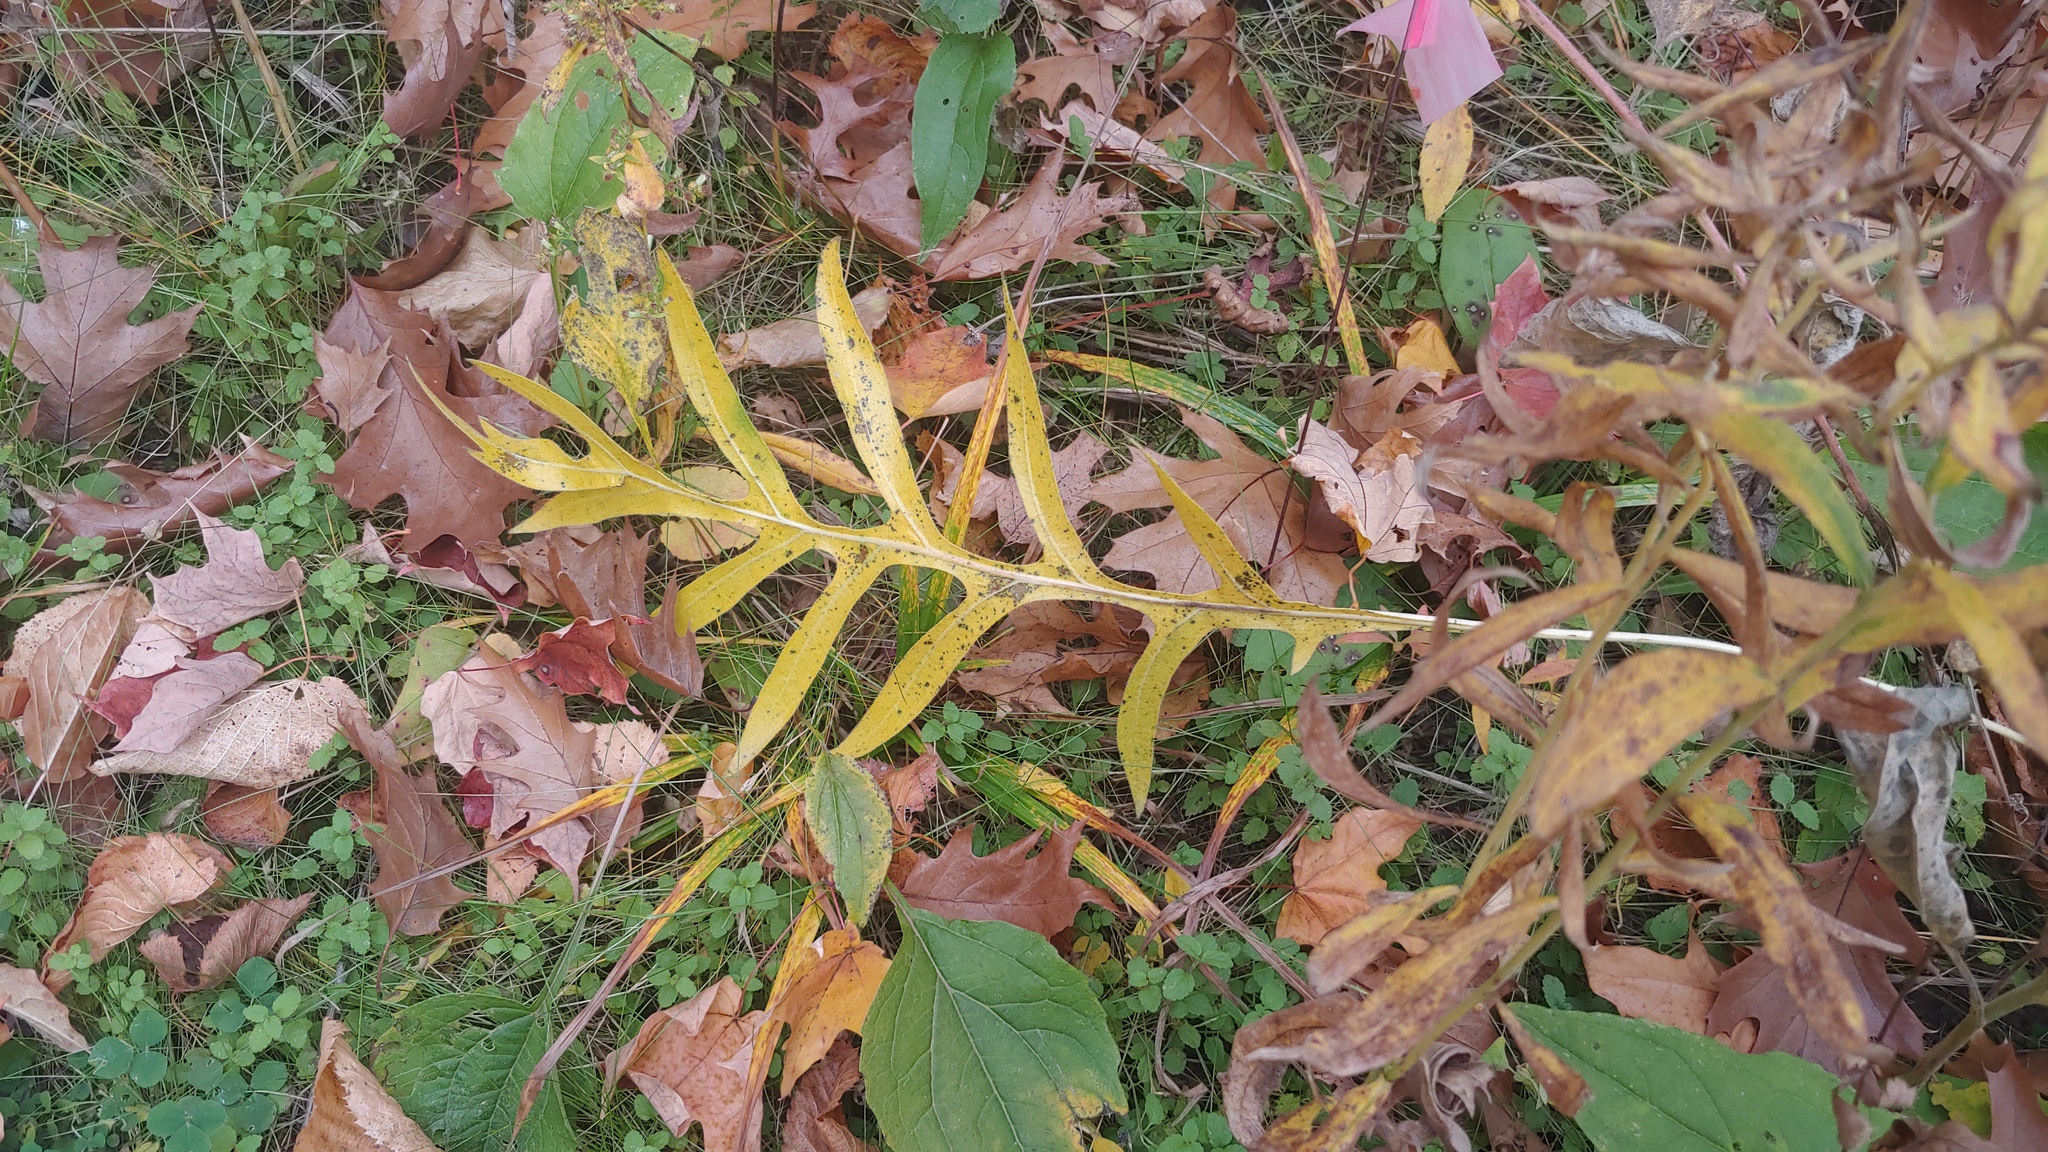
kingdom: Plantae
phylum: Tracheophyta
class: Magnoliopsida
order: Asterales
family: Asteraceae
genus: Silphium
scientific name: Silphium laciniatum
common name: Polarplant
